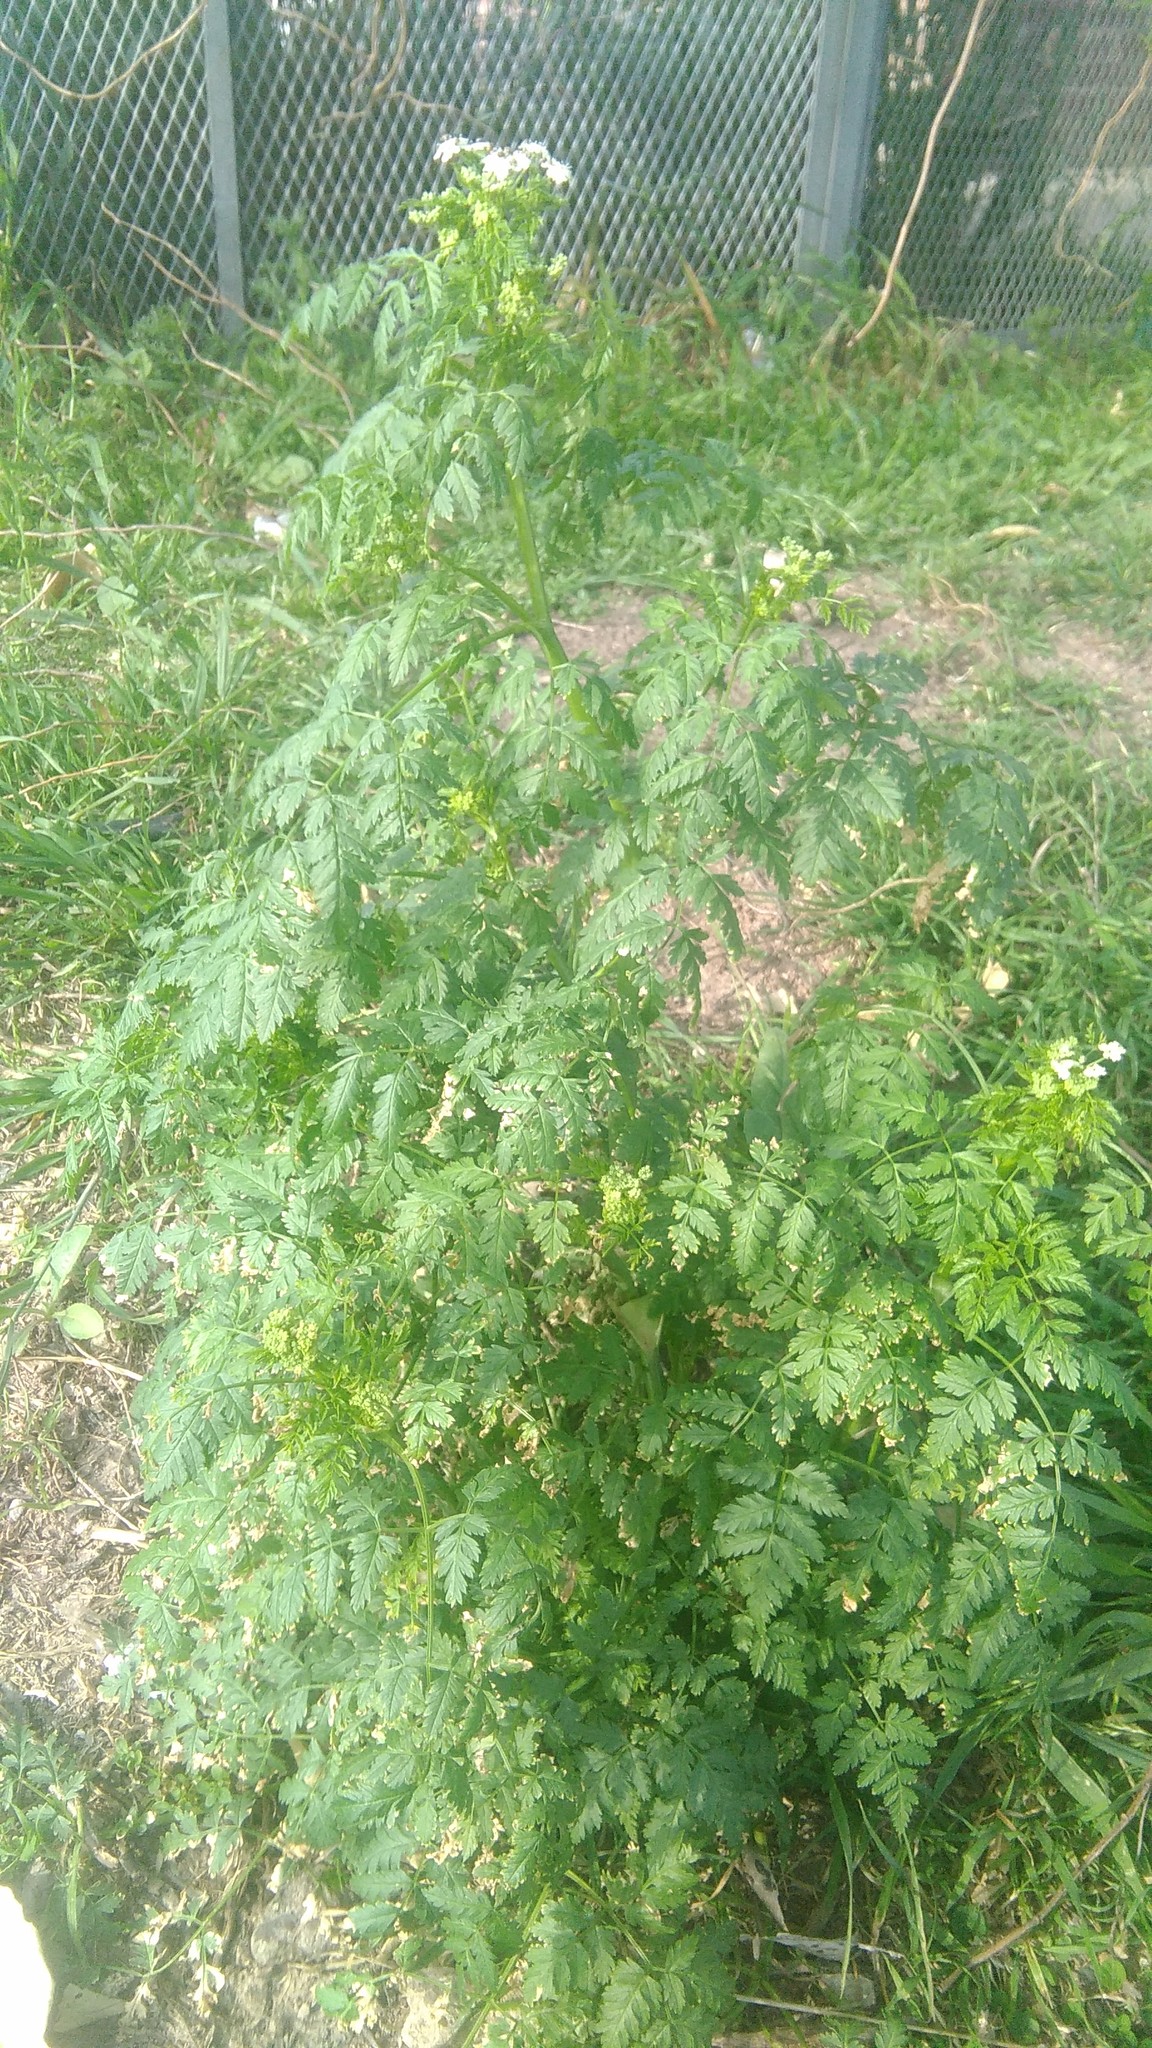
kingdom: Plantae
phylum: Tracheophyta
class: Magnoliopsida
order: Apiales
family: Apiaceae
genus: Conium
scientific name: Conium maculatum
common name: Hemlock
